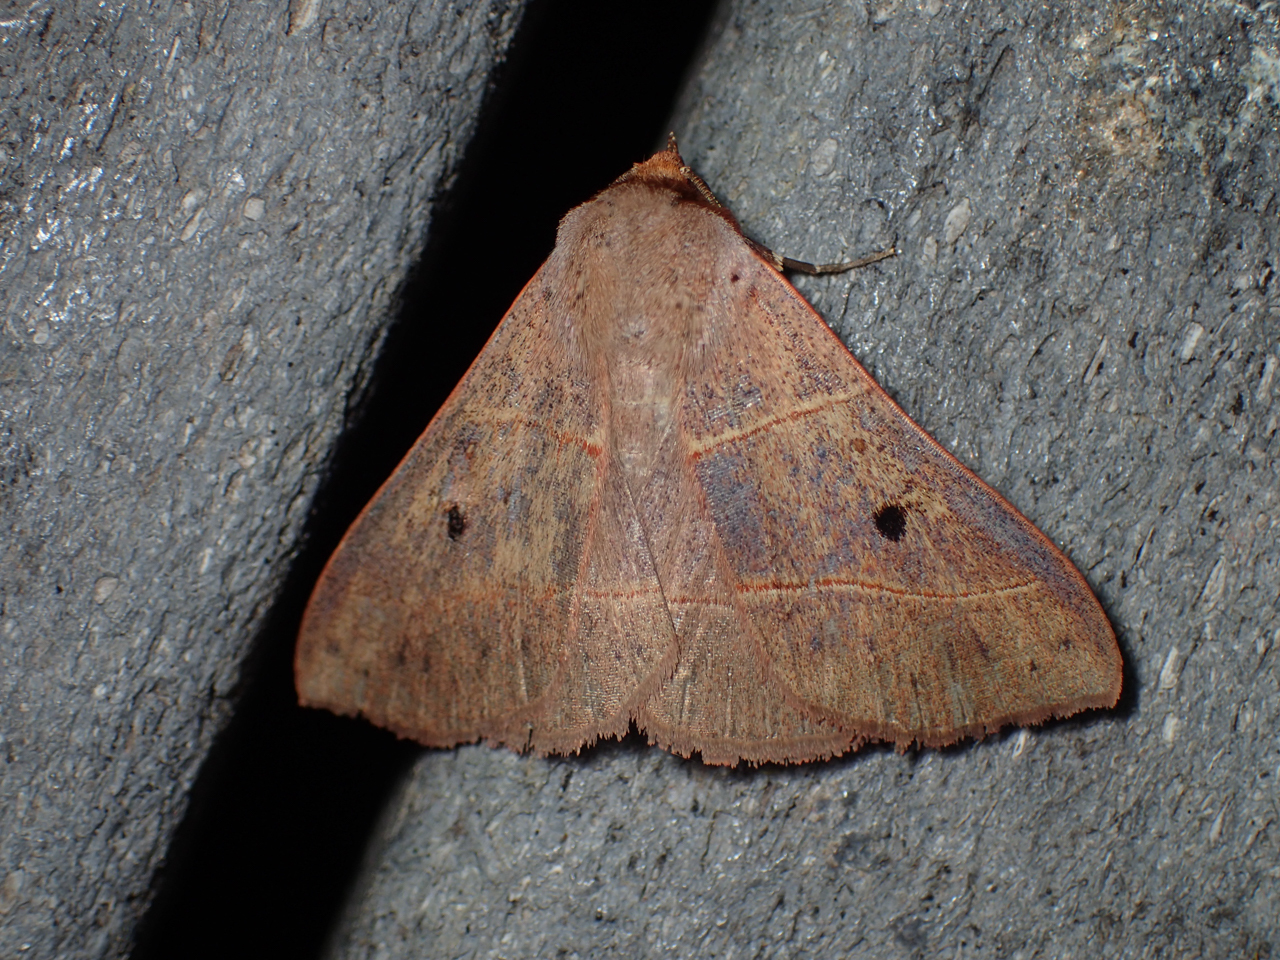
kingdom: Animalia
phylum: Arthropoda
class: Insecta
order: Lepidoptera
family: Erebidae
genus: Panopoda
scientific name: Panopoda rufimargo
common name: Red-lined panopoda moth
